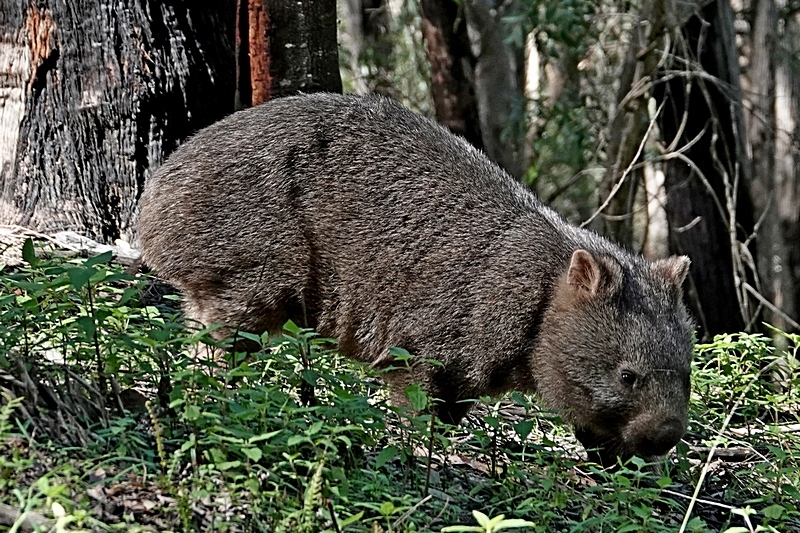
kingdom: Animalia
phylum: Chordata
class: Mammalia
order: Diprotodontia
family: Vombatidae
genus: Vombatus
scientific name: Vombatus ursinus
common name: Common wombat
